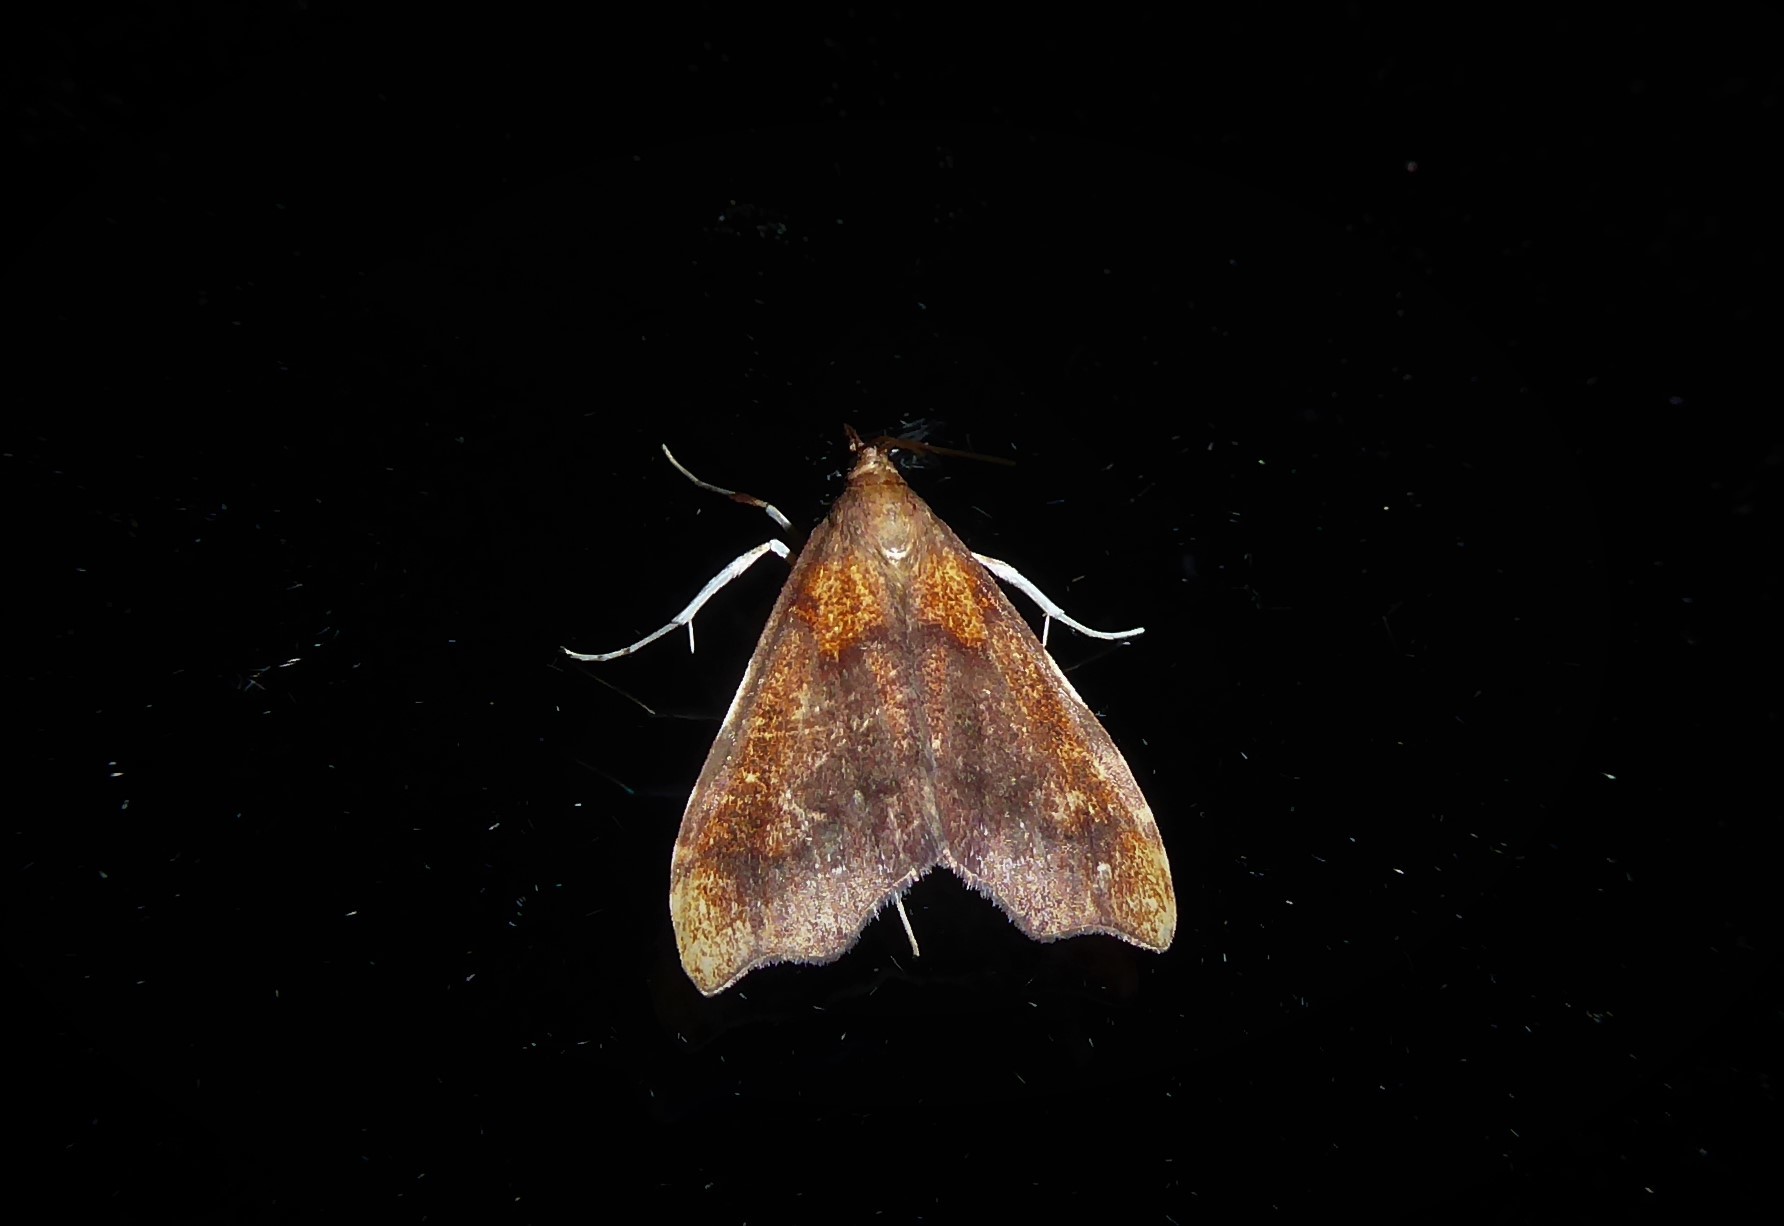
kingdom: Animalia
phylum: Arthropoda
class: Insecta
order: Lepidoptera
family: Crambidae
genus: Deana
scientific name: Deana hybreasalis
